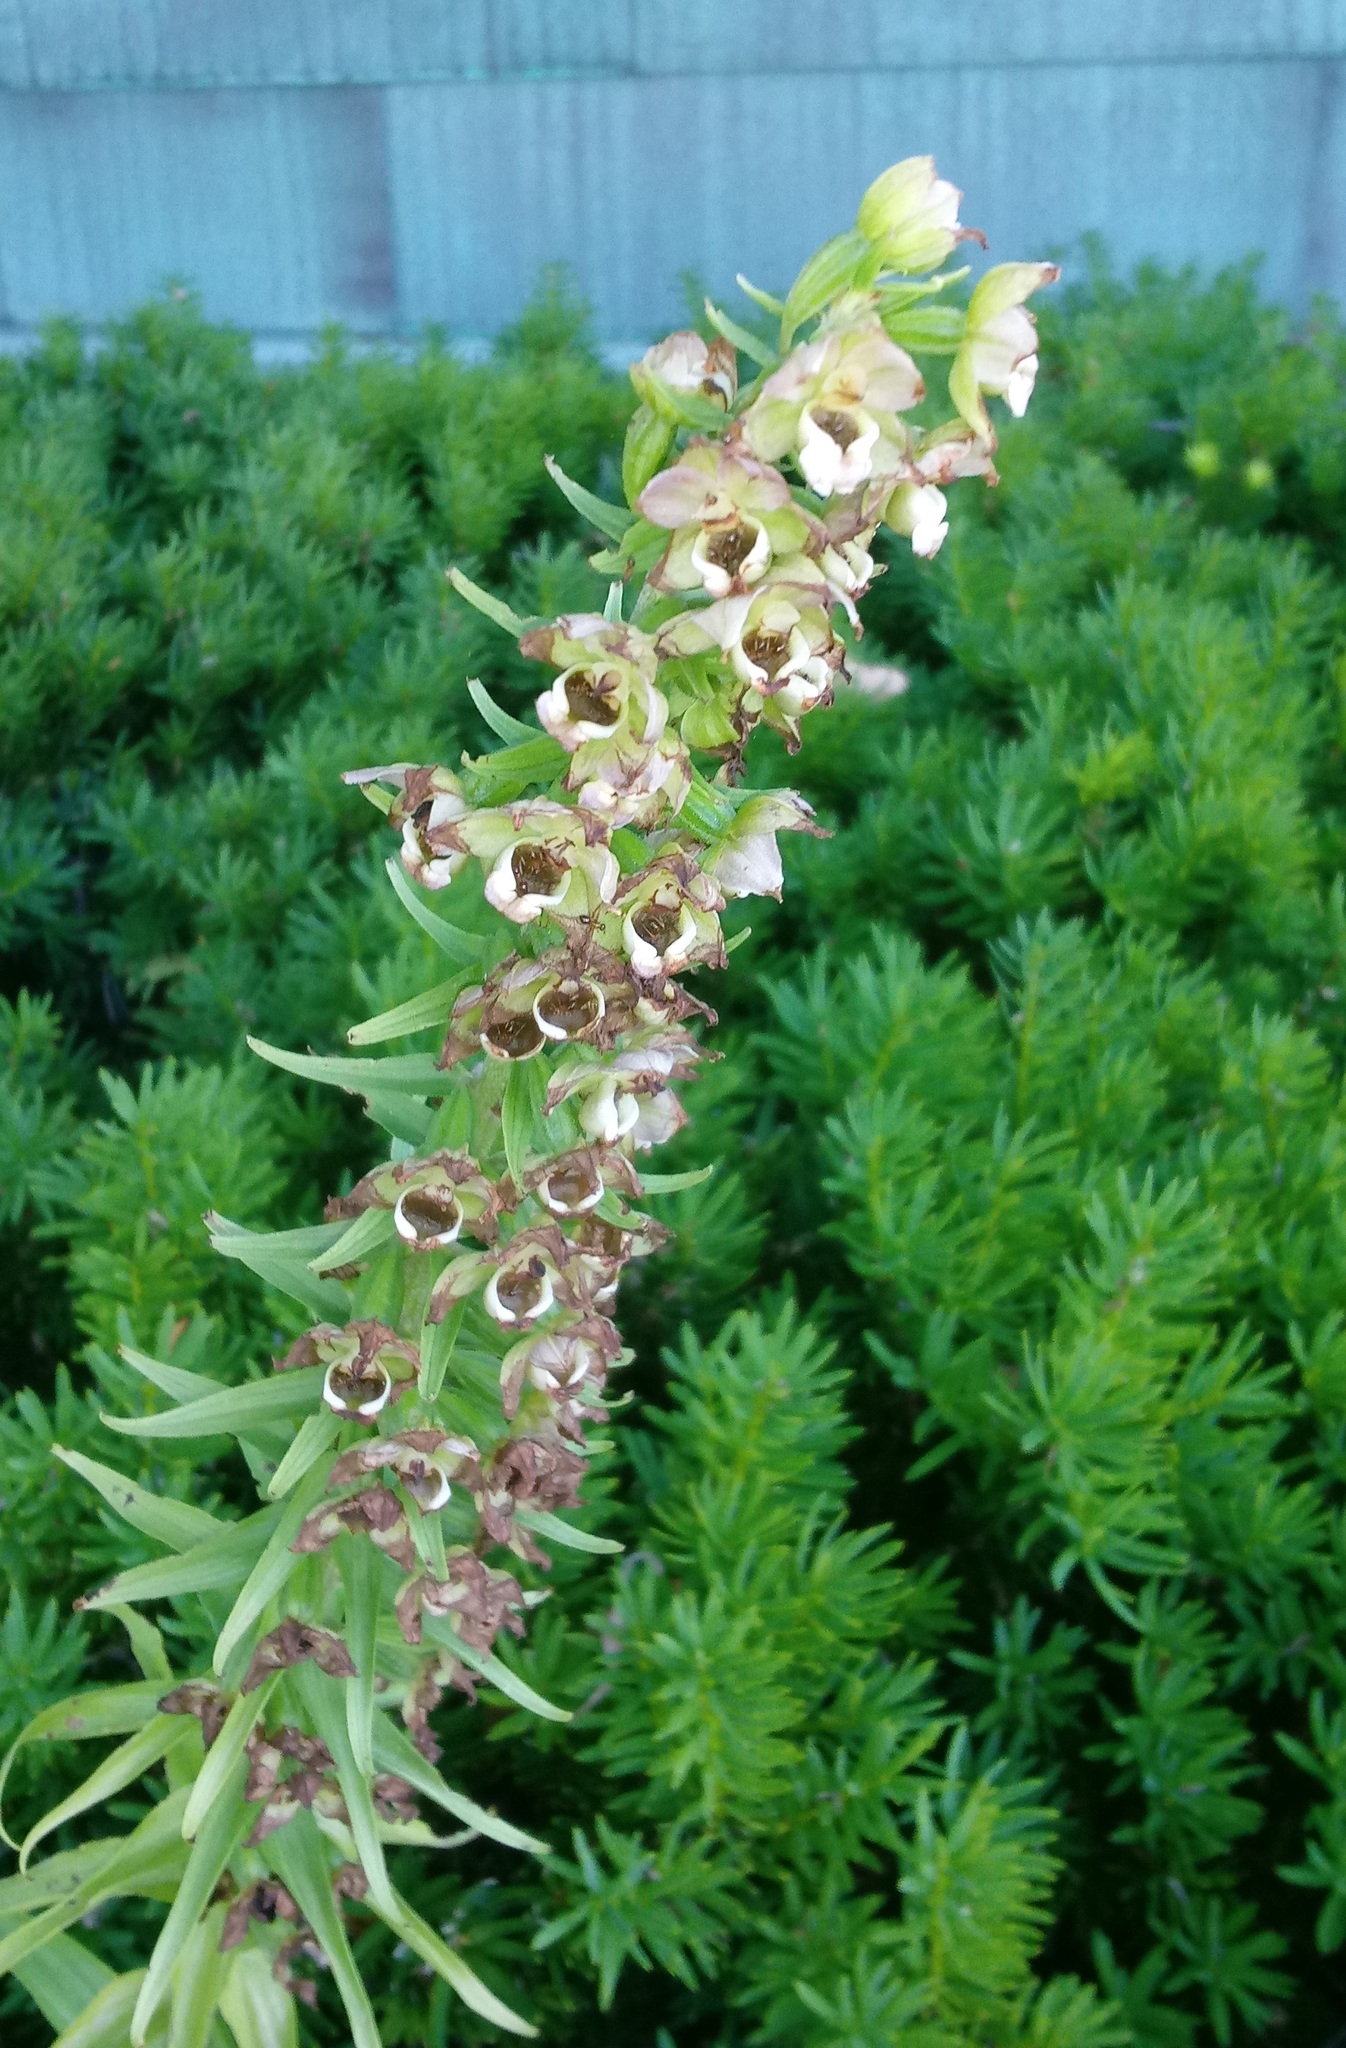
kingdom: Plantae
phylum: Tracheophyta
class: Liliopsida
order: Asparagales
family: Orchidaceae
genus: Epipactis
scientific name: Epipactis helleborine
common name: Broad-leaved helleborine
